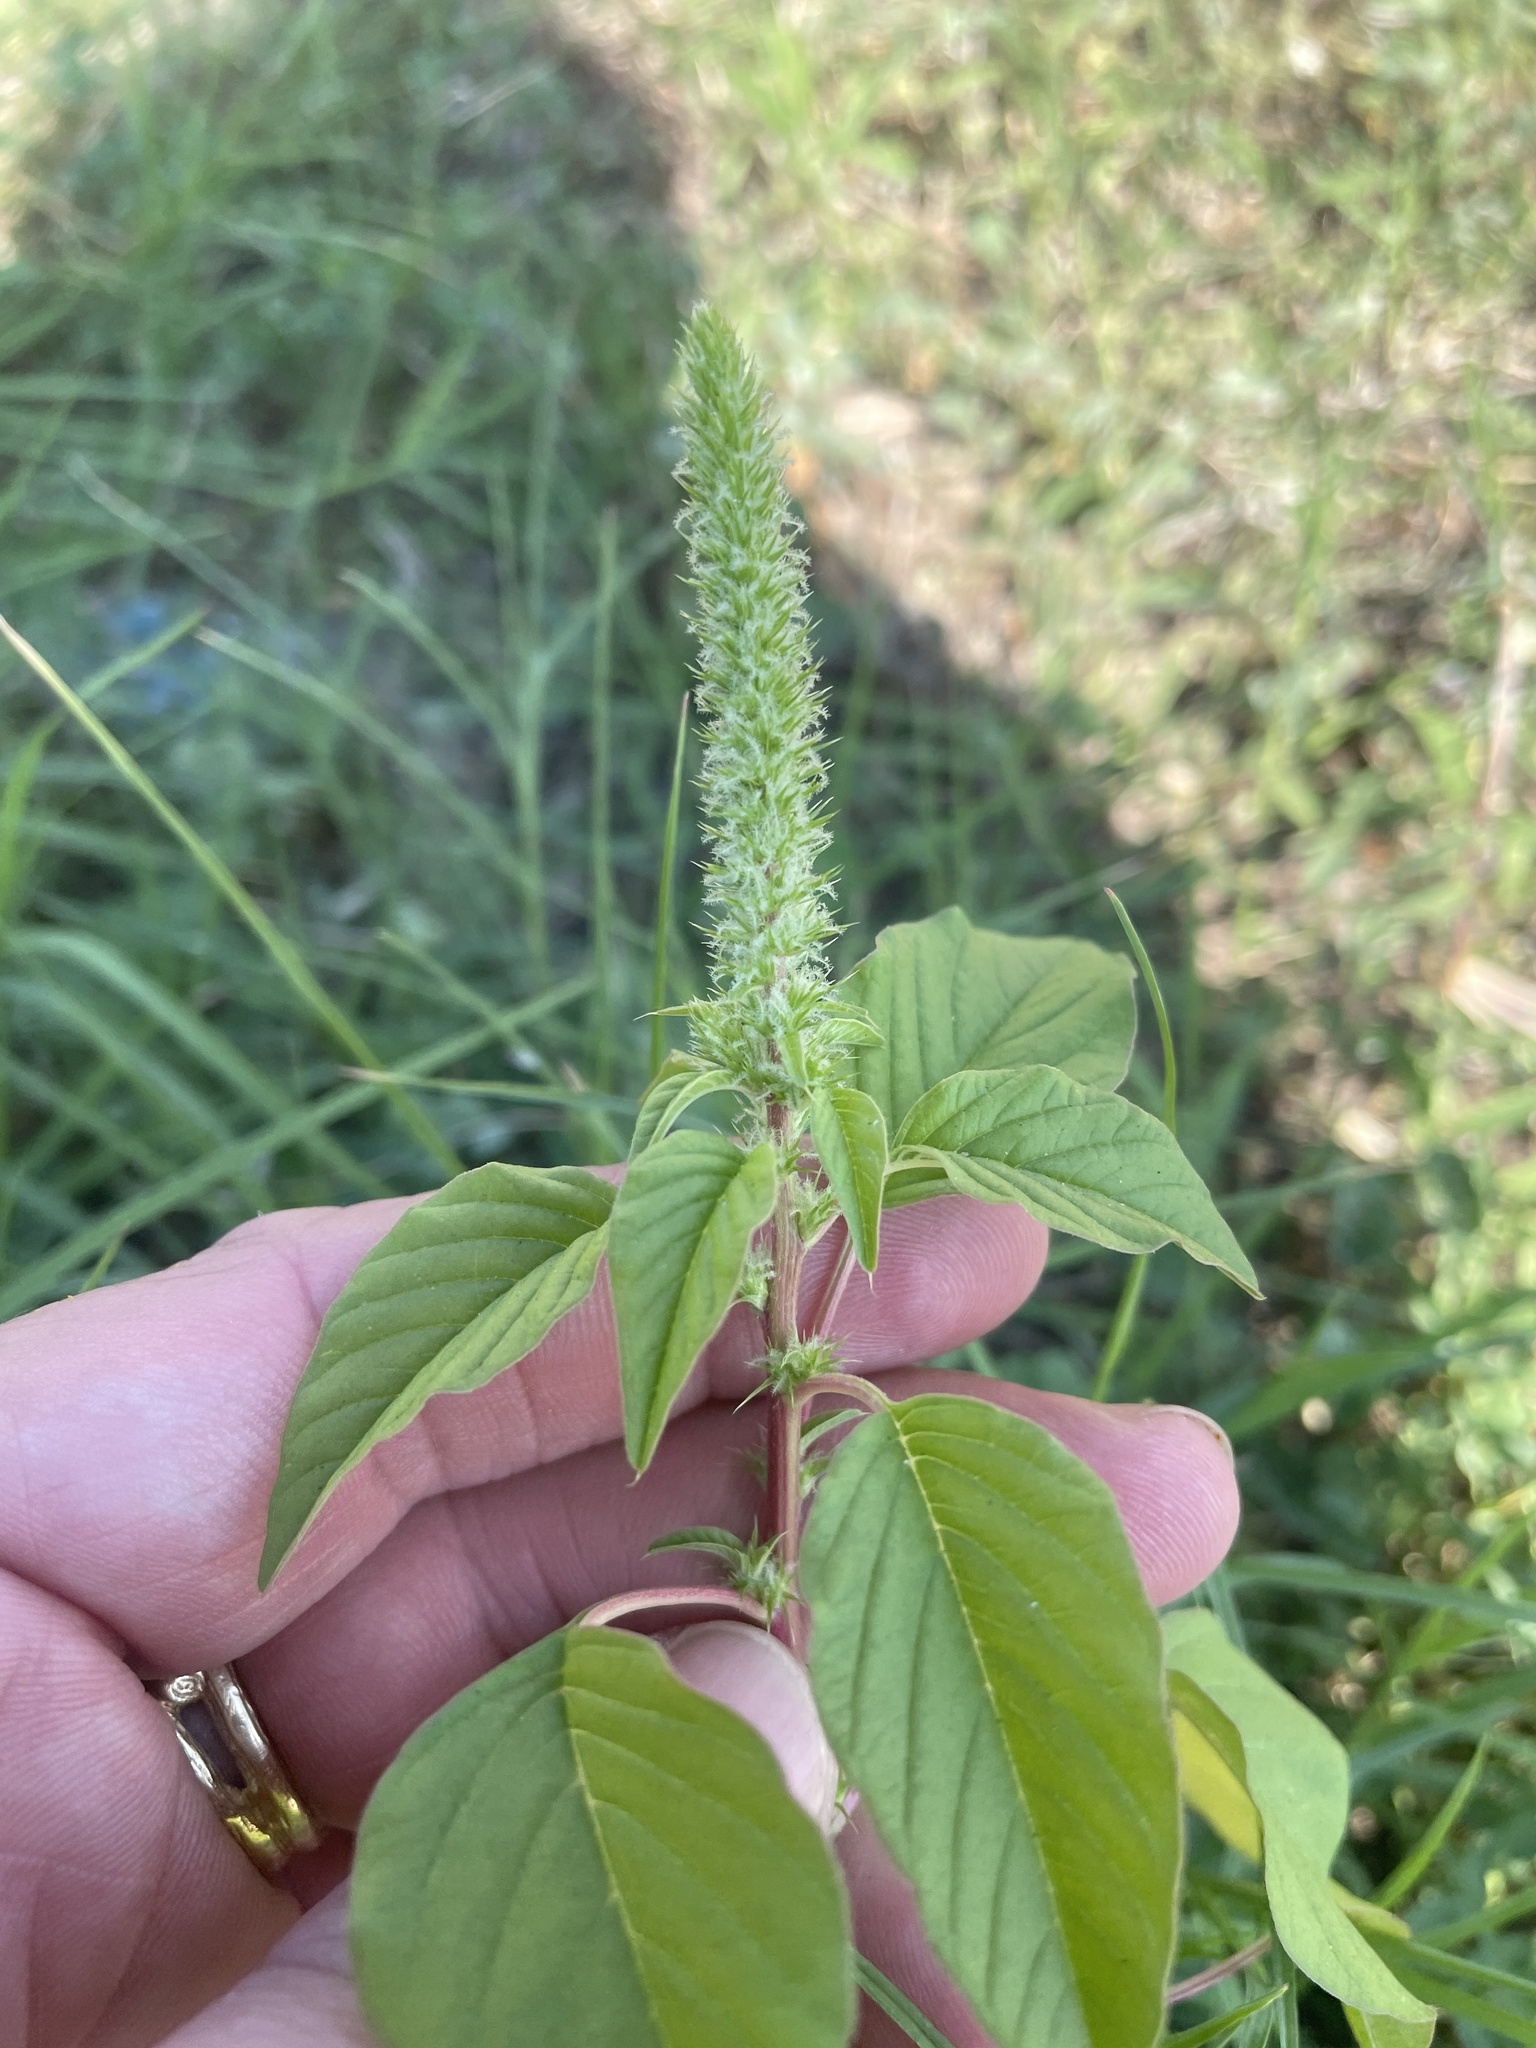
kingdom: Plantae
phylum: Tracheophyta
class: Magnoliopsida
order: Caryophyllales
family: Amaranthaceae
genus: Amaranthus
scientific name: Amaranthus palmeri
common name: Dioecious amaranth
